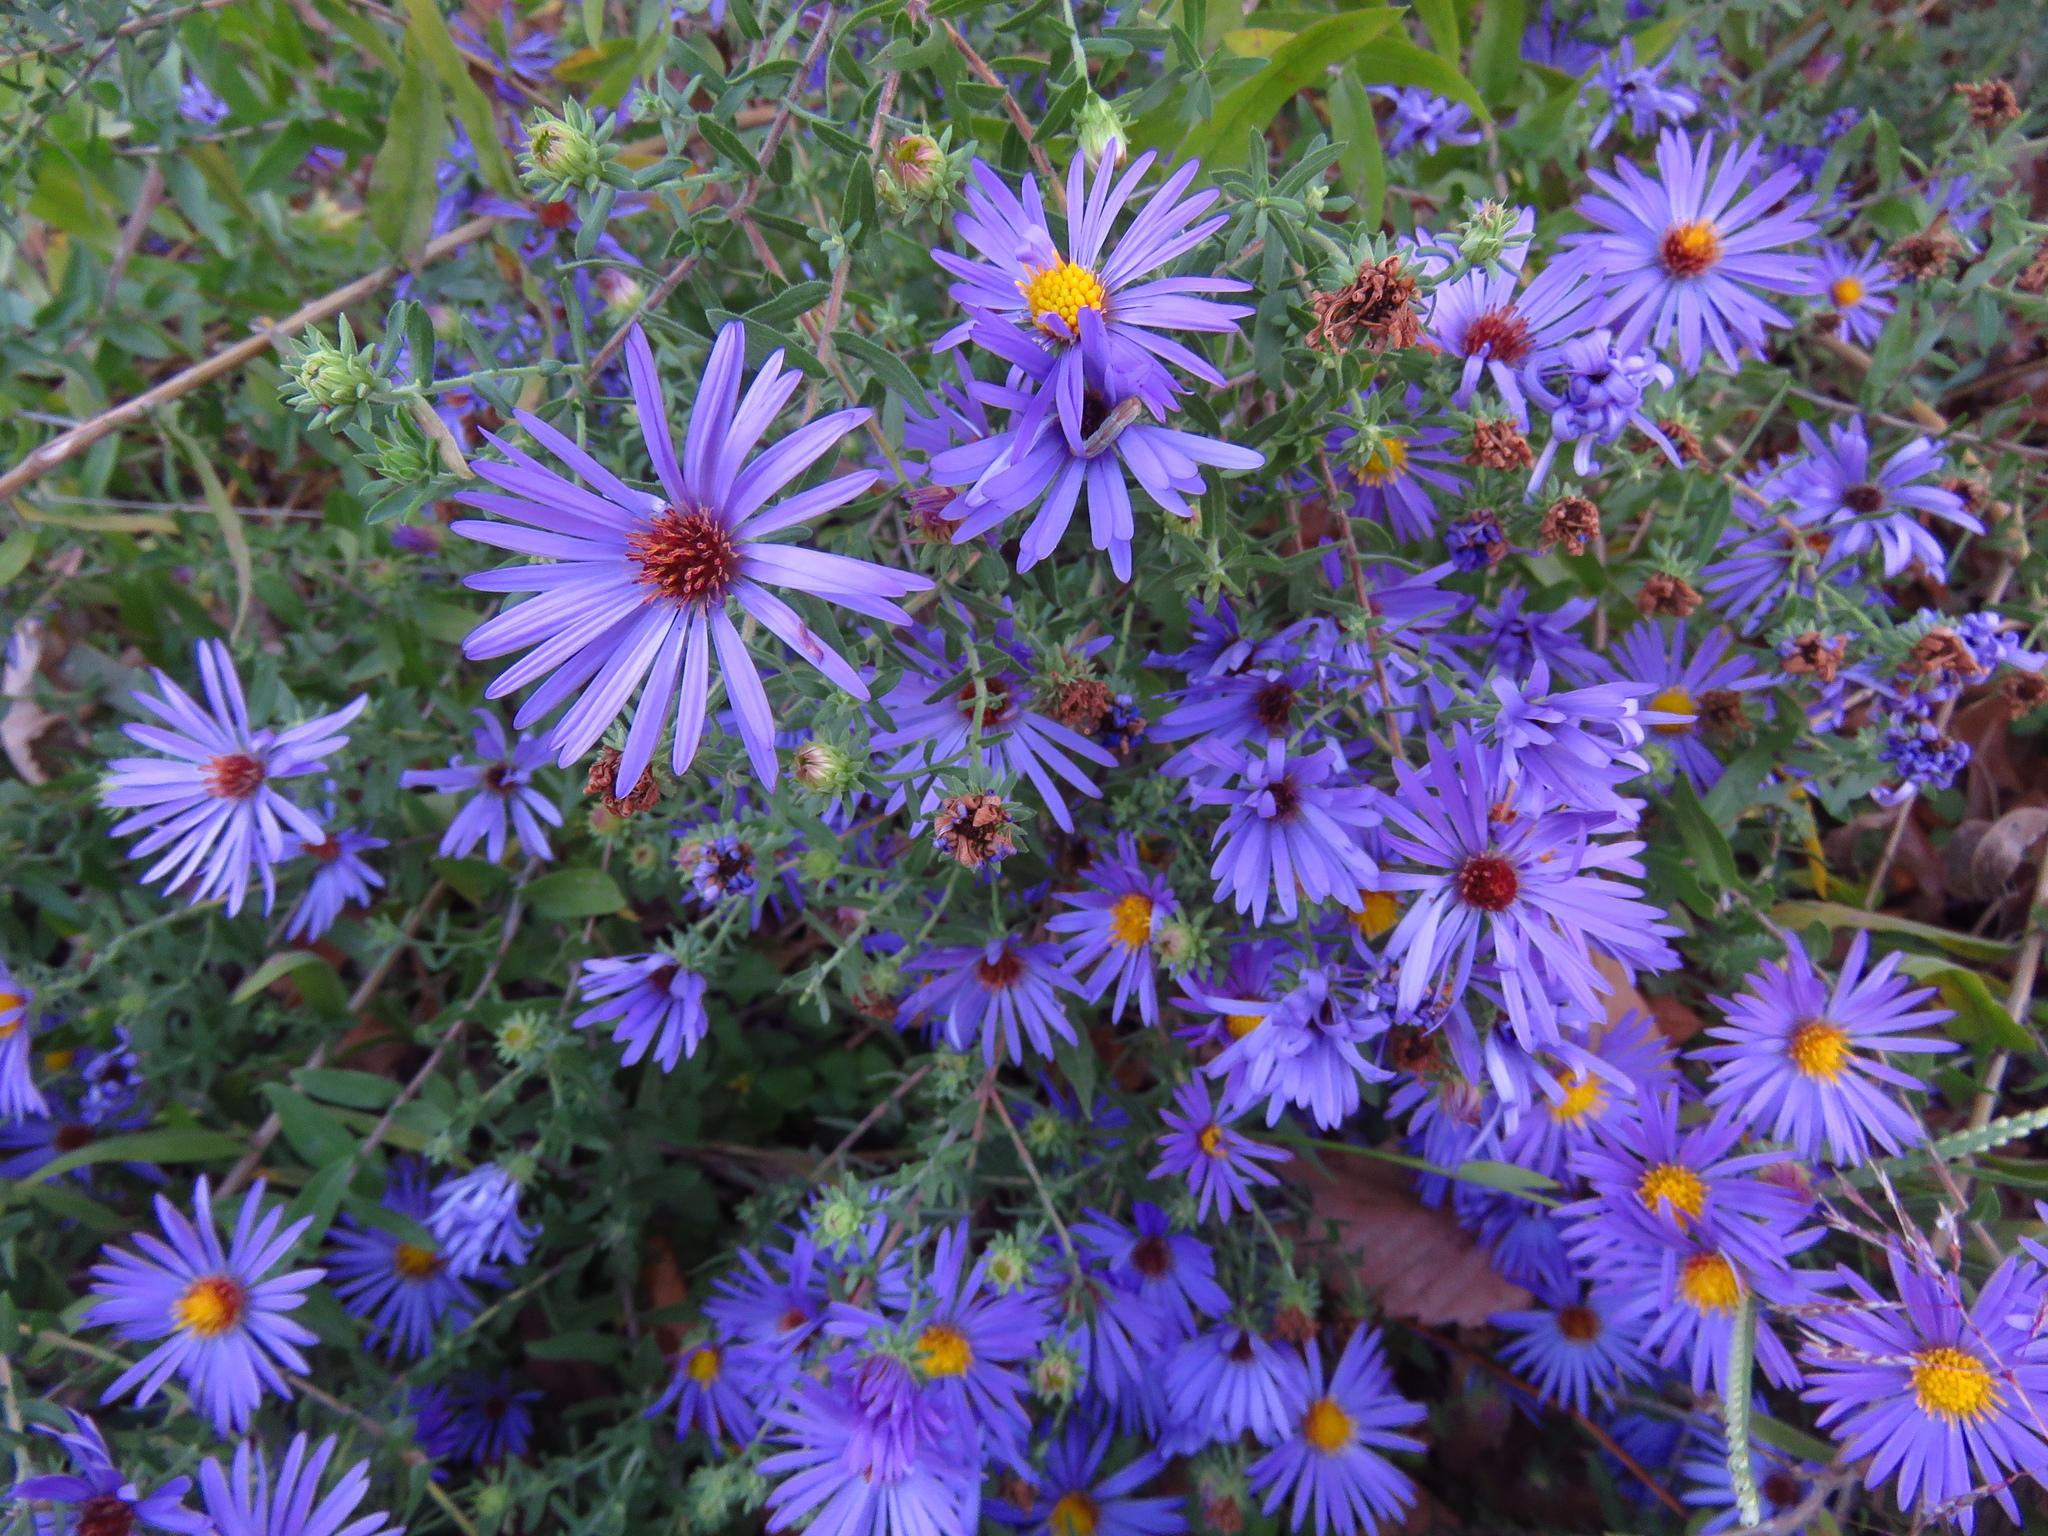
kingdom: Plantae
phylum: Tracheophyta
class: Magnoliopsida
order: Asterales
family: Asteraceae
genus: Symphyotrichum
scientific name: Symphyotrichum oblongifolium
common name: Aromatic aster
